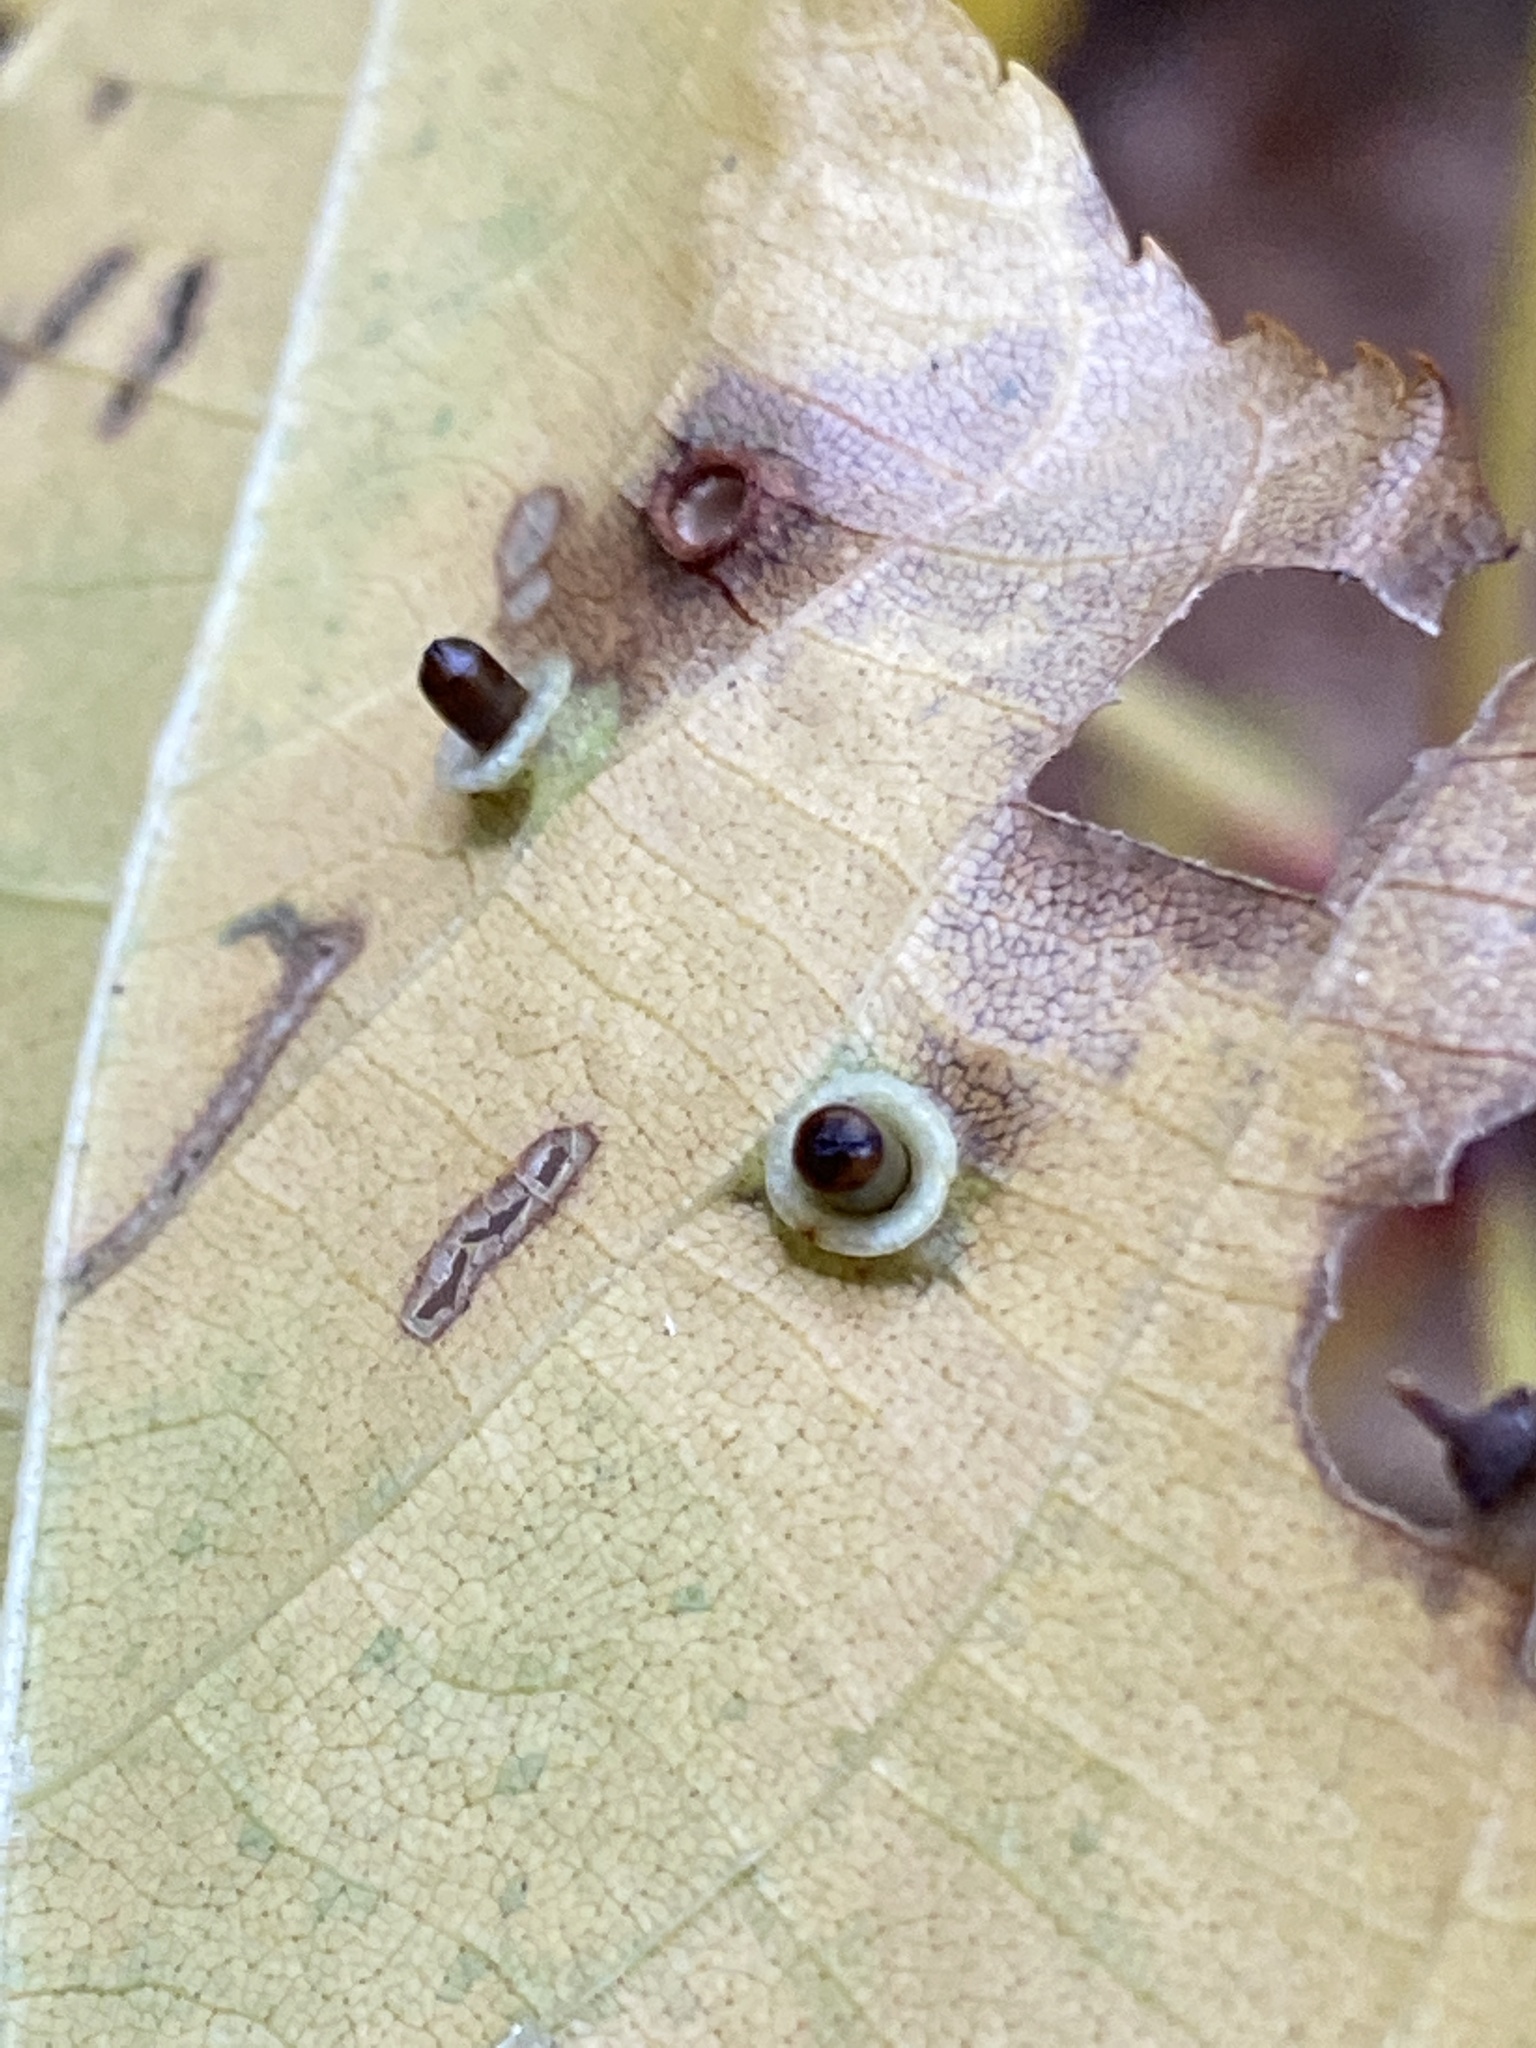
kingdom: Animalia
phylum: Arthropoda
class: Insecta
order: Diptera
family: Cecidomyiidae
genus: Caryomyia
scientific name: Caryomyia tubicola
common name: Hickory bullet gall midge
